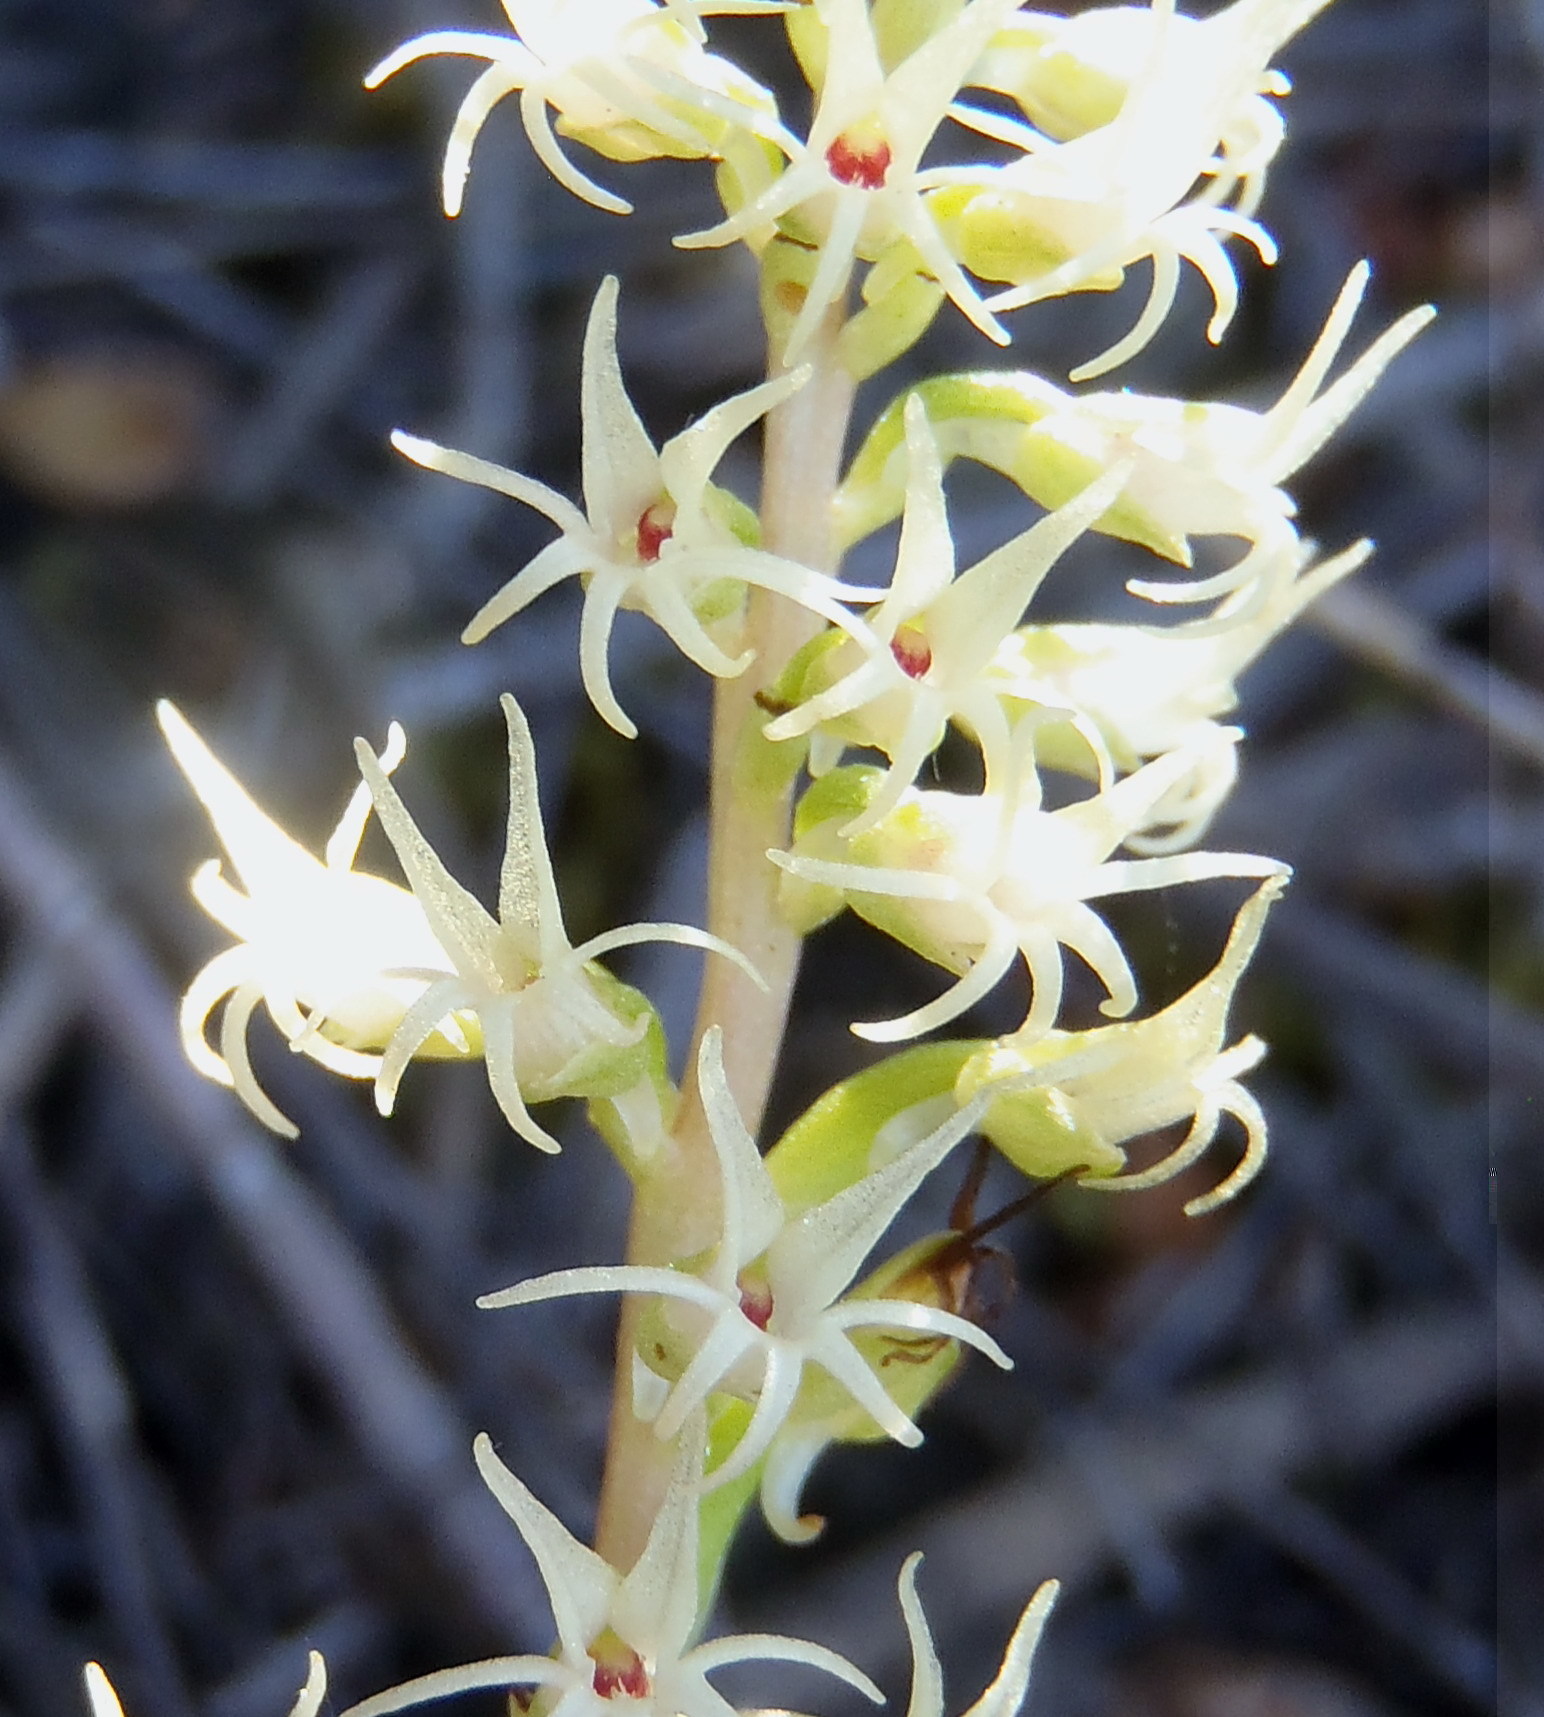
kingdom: Plantae
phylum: Tracheophyta
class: Liliopsida
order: Asparagales
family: Orchidaceae
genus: Holothrix
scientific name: Holothrix secunda
